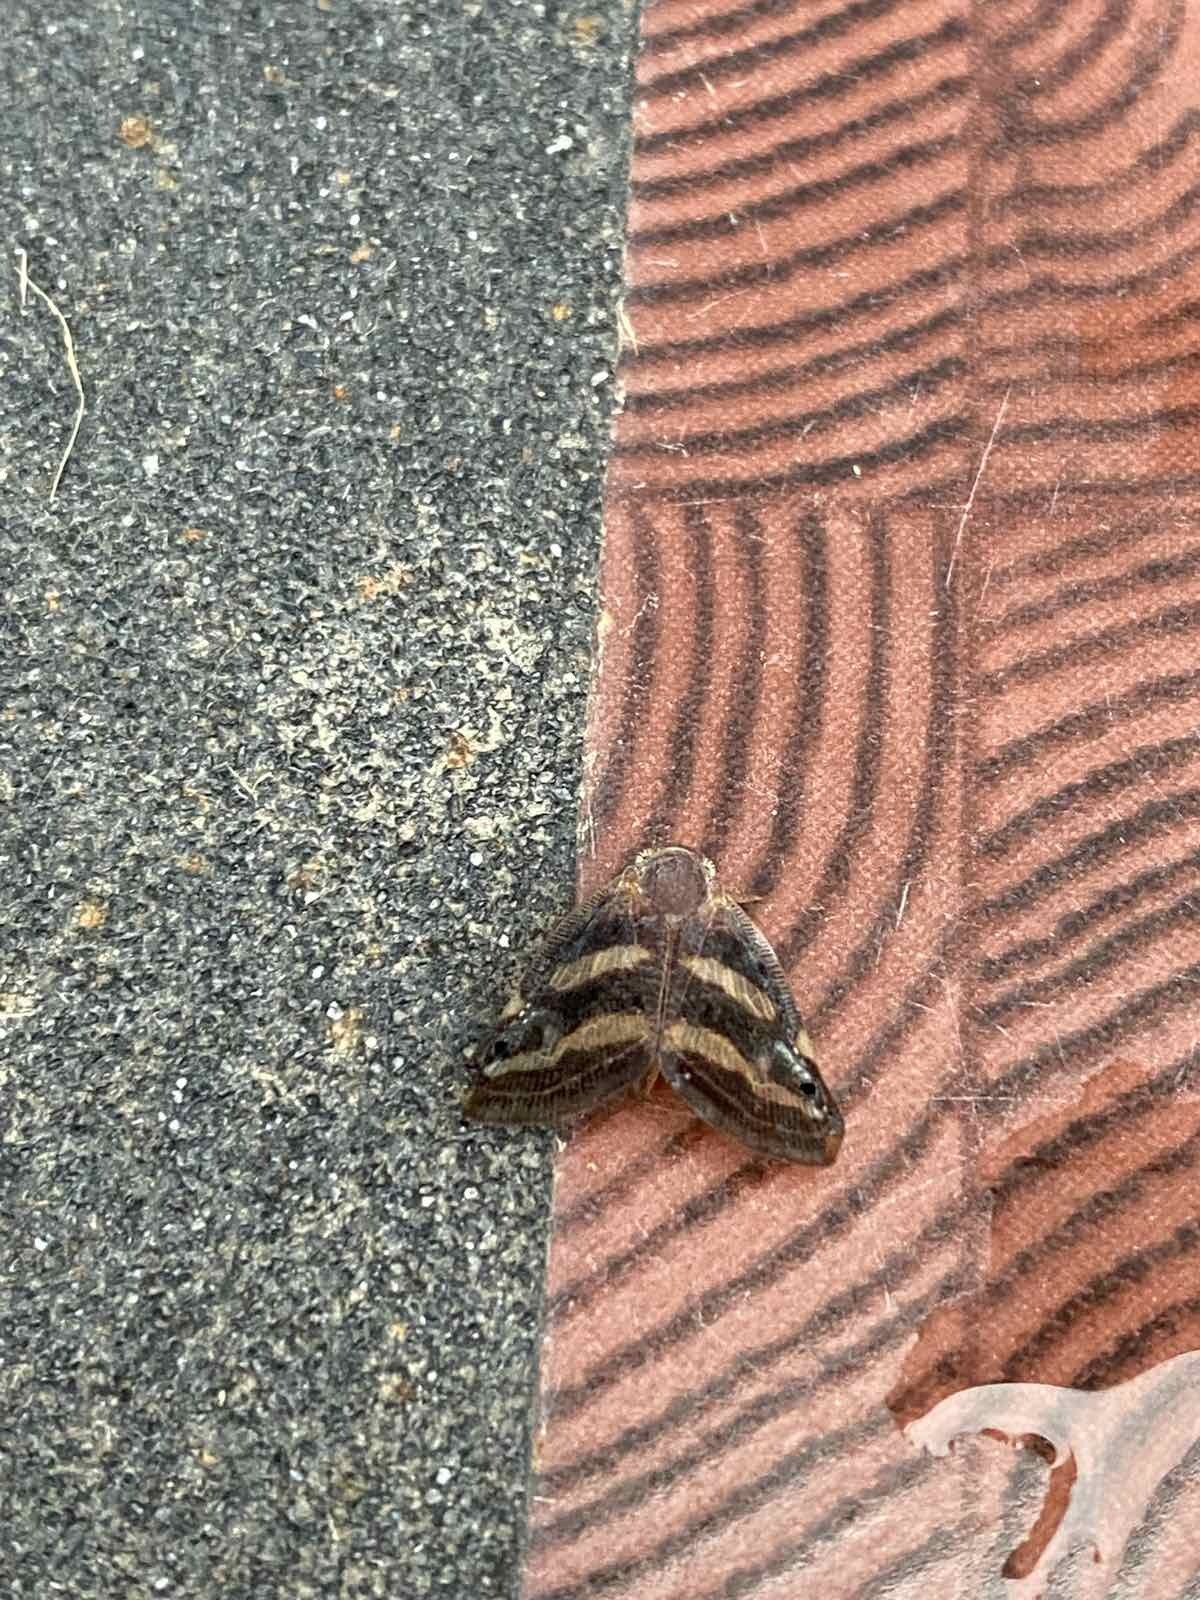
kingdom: Animalia
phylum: Arthropoda
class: Insecta
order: Hemiptera
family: Ricaniidae
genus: Orosanga
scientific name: Orosanga japonica
